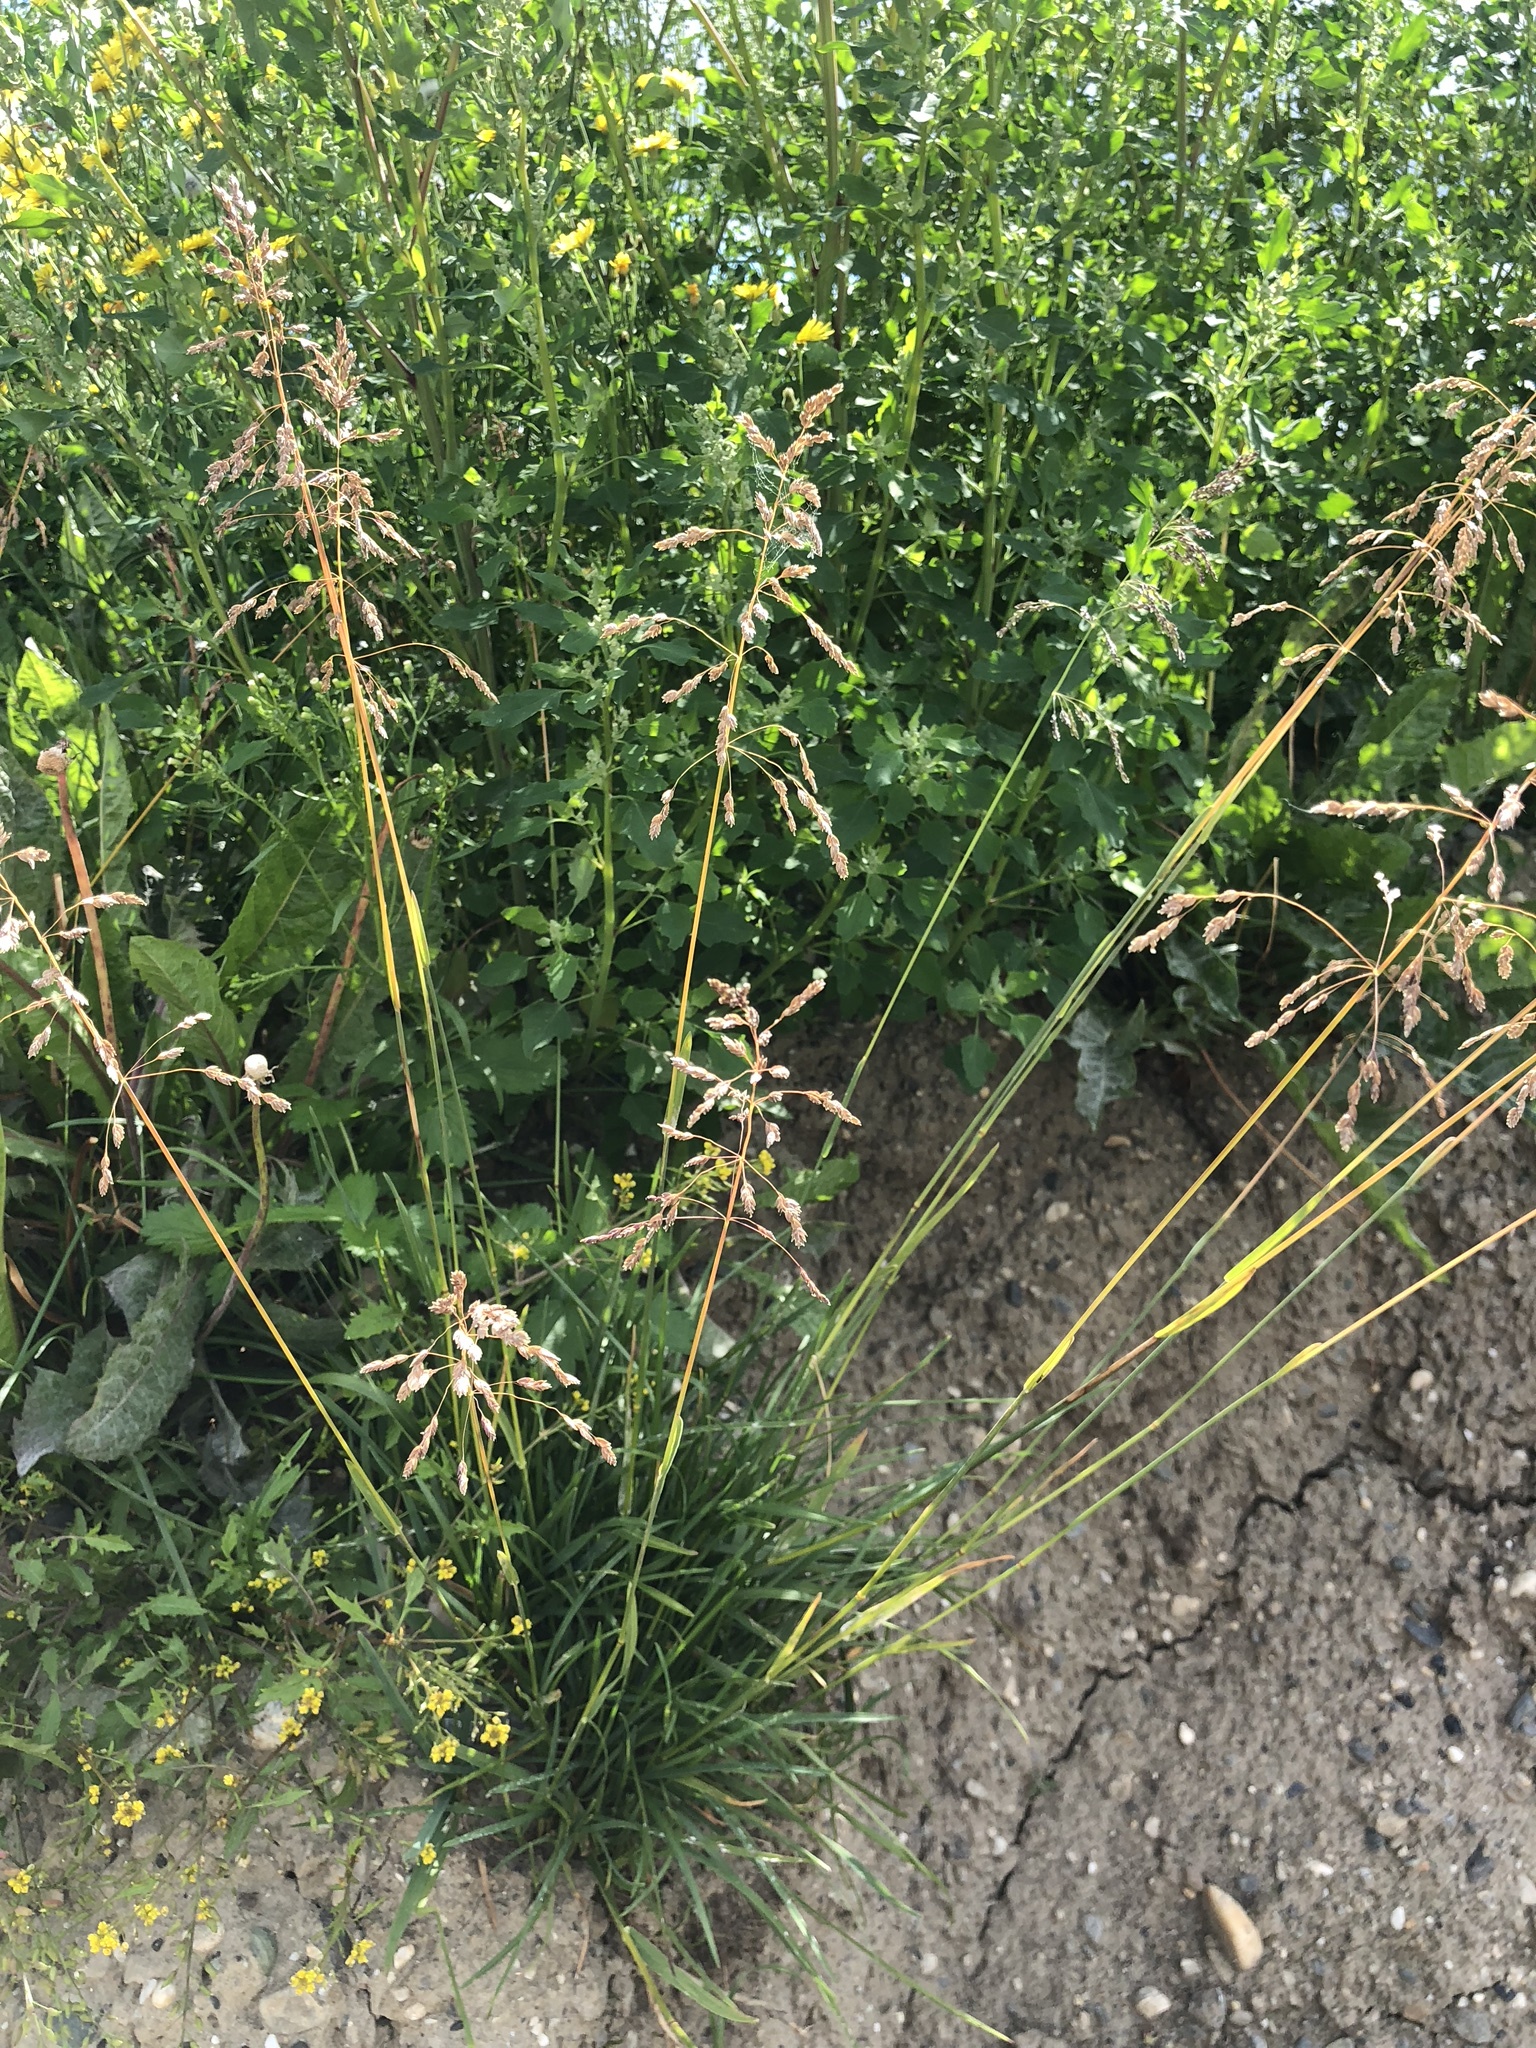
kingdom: Plantae
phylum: Tracheophyta
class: Liliopsida
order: Poales
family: Poaceae
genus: Deschampsia
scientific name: Deschampsia cespitosa
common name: Tufted hair-grass
